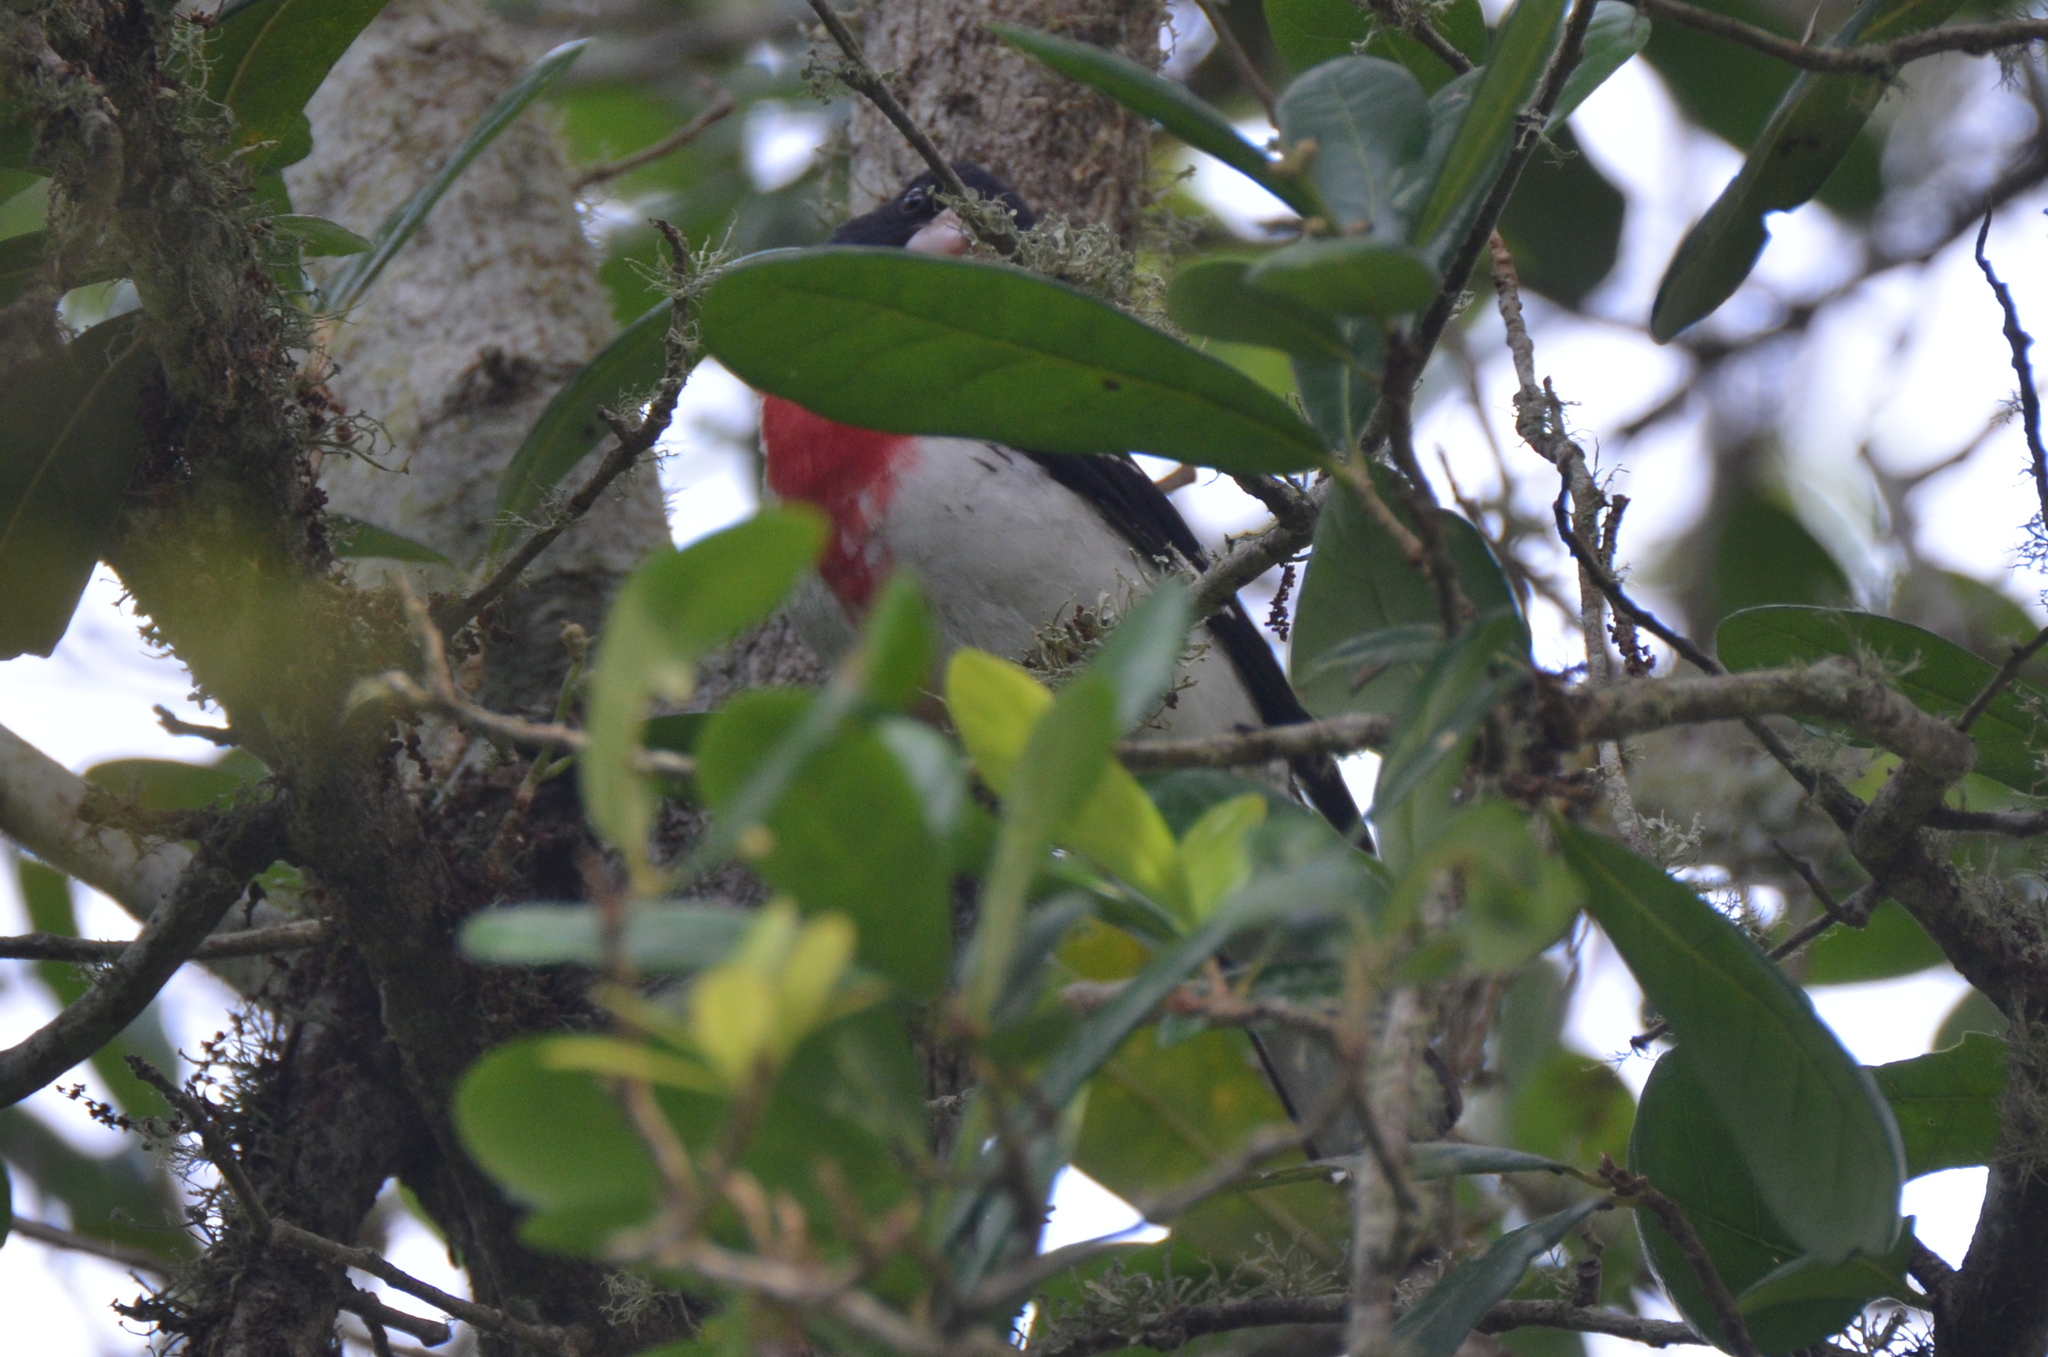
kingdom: Animalia
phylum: Chordata
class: Aves
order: Passeriformes
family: Cardinalidae
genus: Pheucticus
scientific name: Pheucticus ludovicianus
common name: Rose-breasted grosbeak
